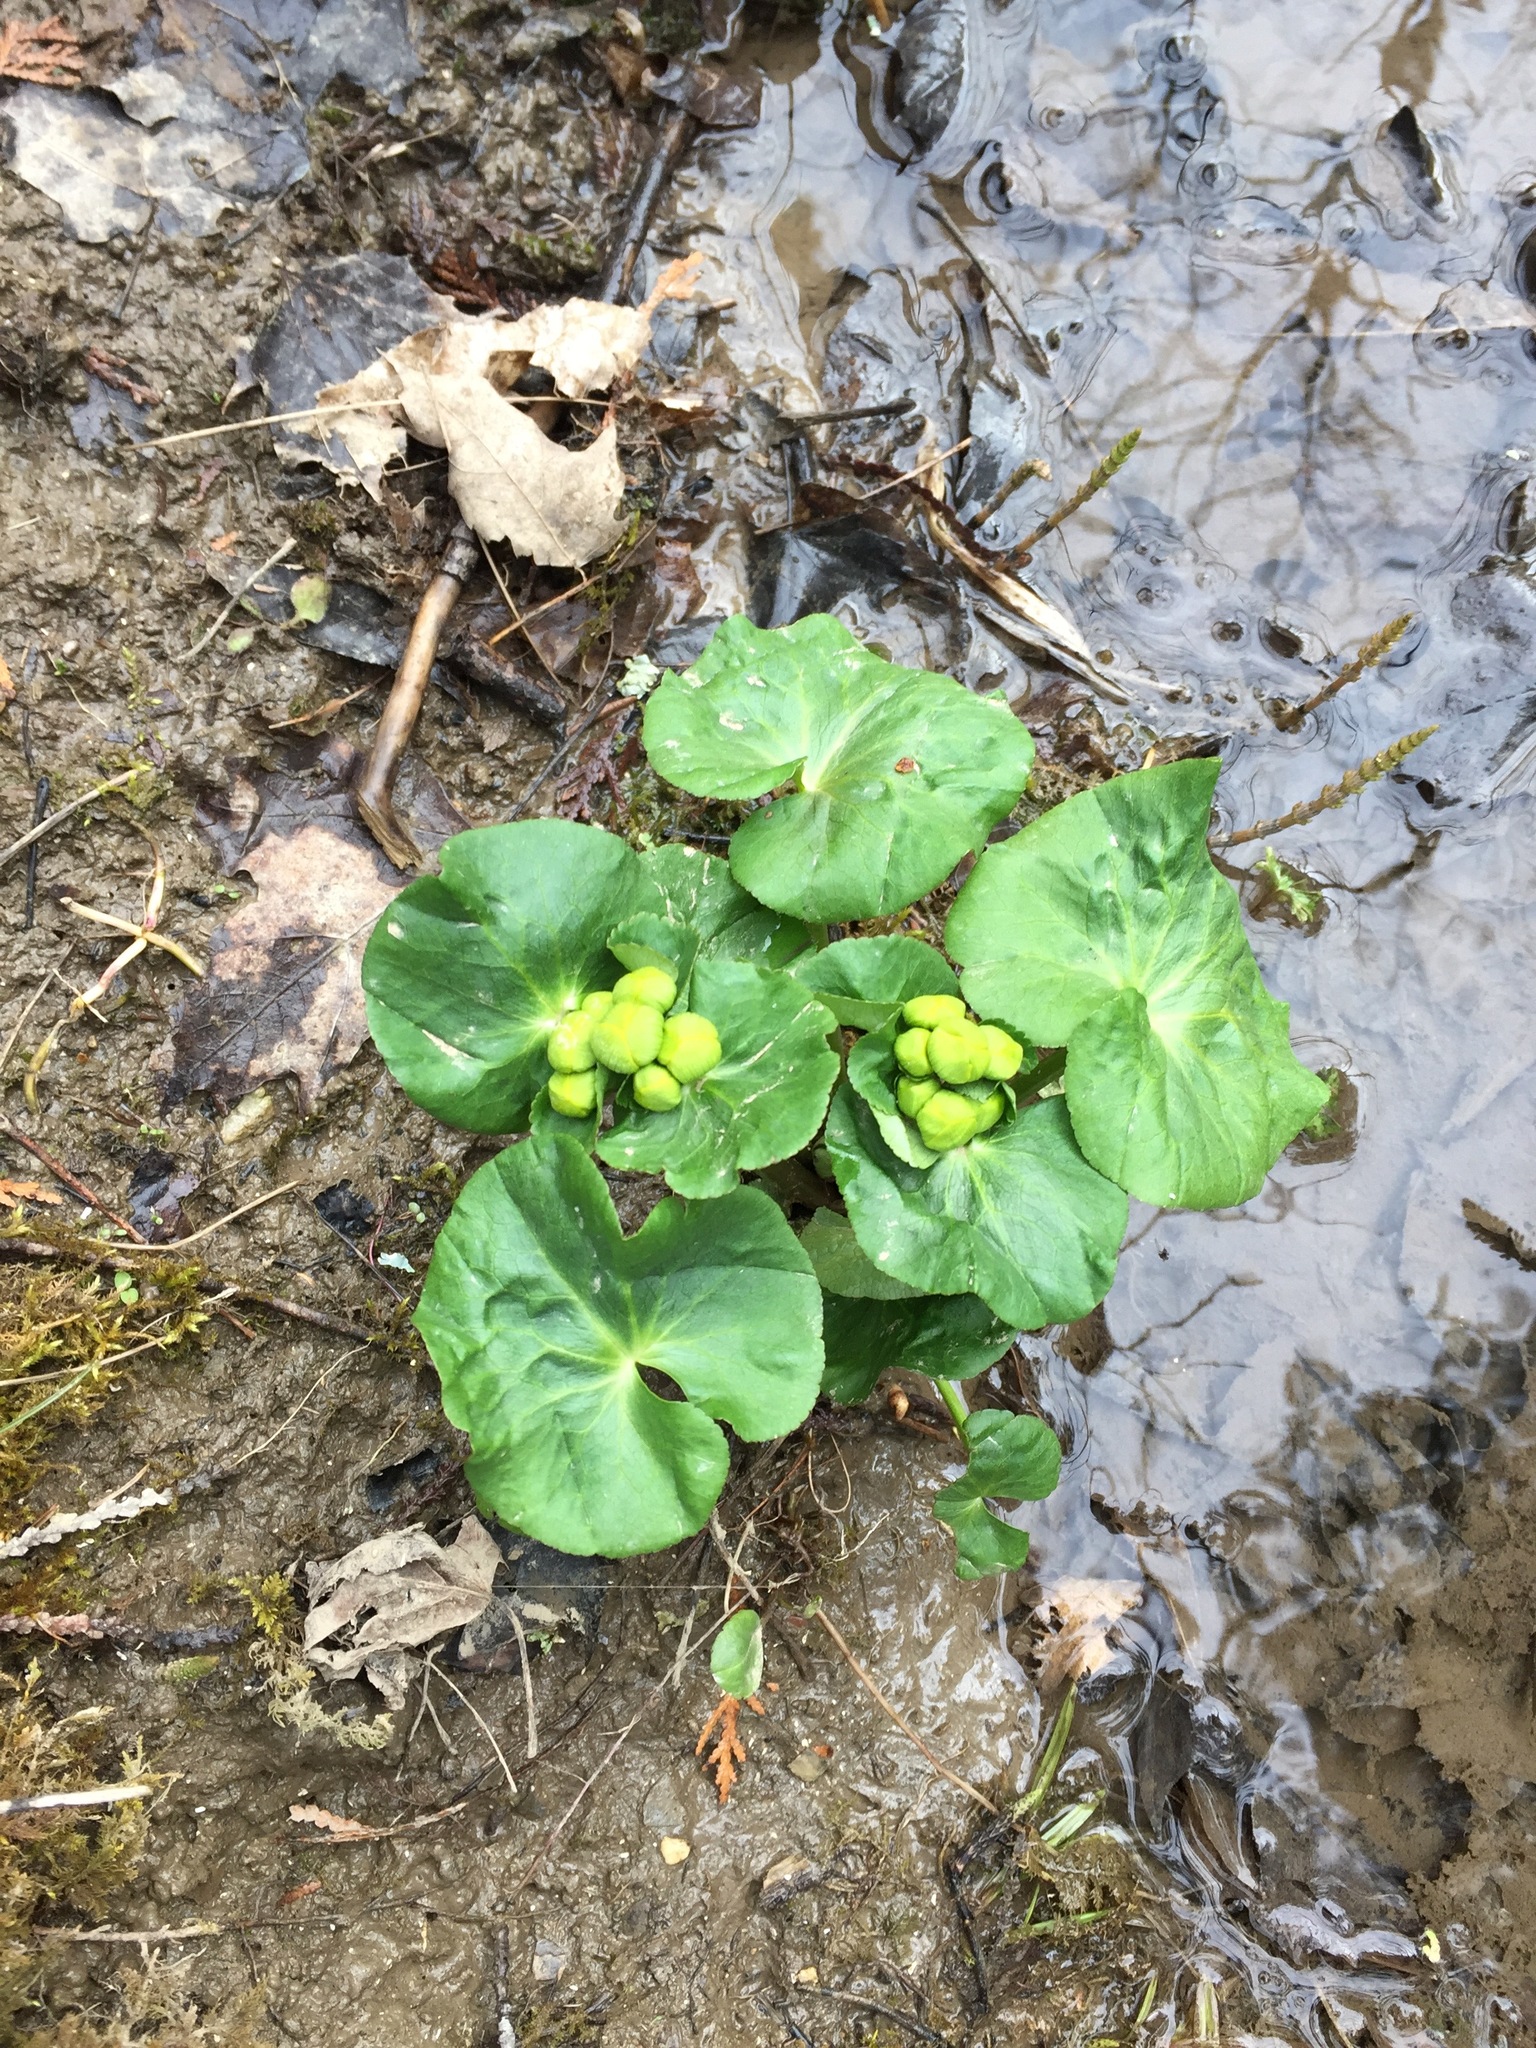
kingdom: Plantae
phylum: Tracheophyta
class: Magnoliopsida
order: Ranunculales
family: Ranunculaceae
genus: Caltha
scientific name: Caltha palustris
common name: Marsh marigold
